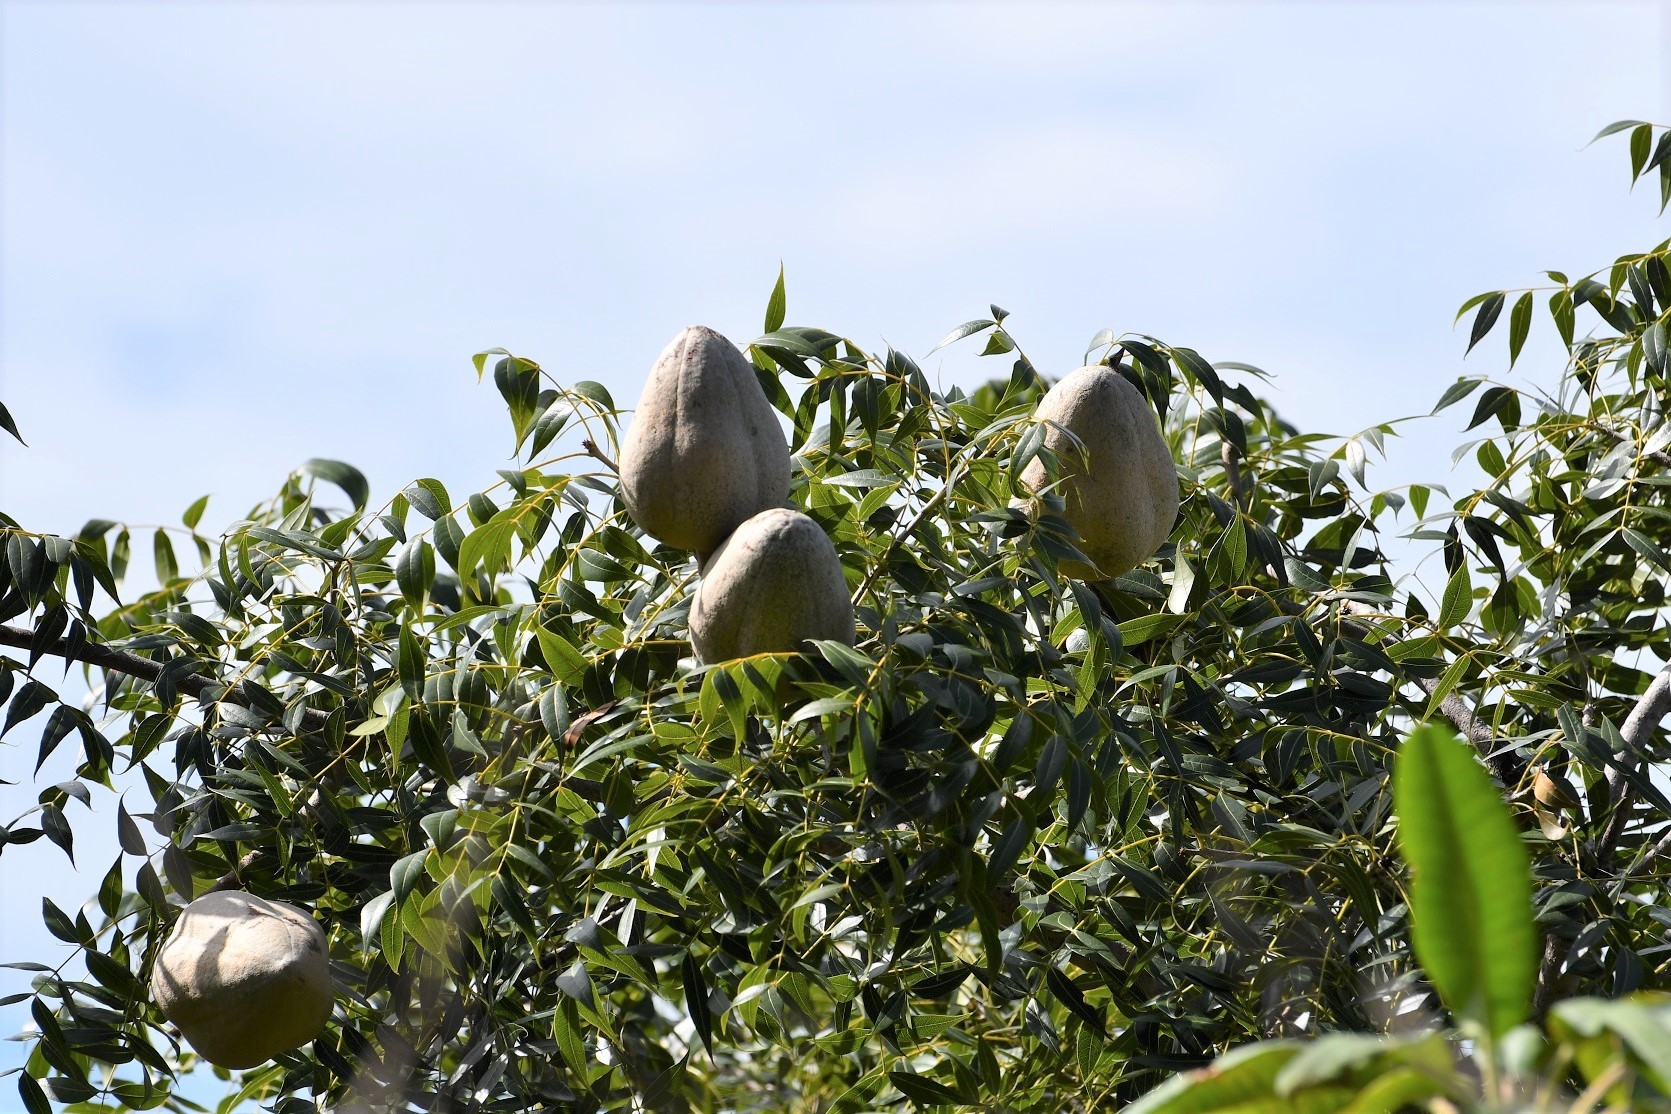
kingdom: Plantae
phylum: Tracheophyta
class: Magnoliopsida
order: Sapindales
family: Meliaceae
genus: Swietenia
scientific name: Swietenia humilis
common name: Pacific coast mahogany
